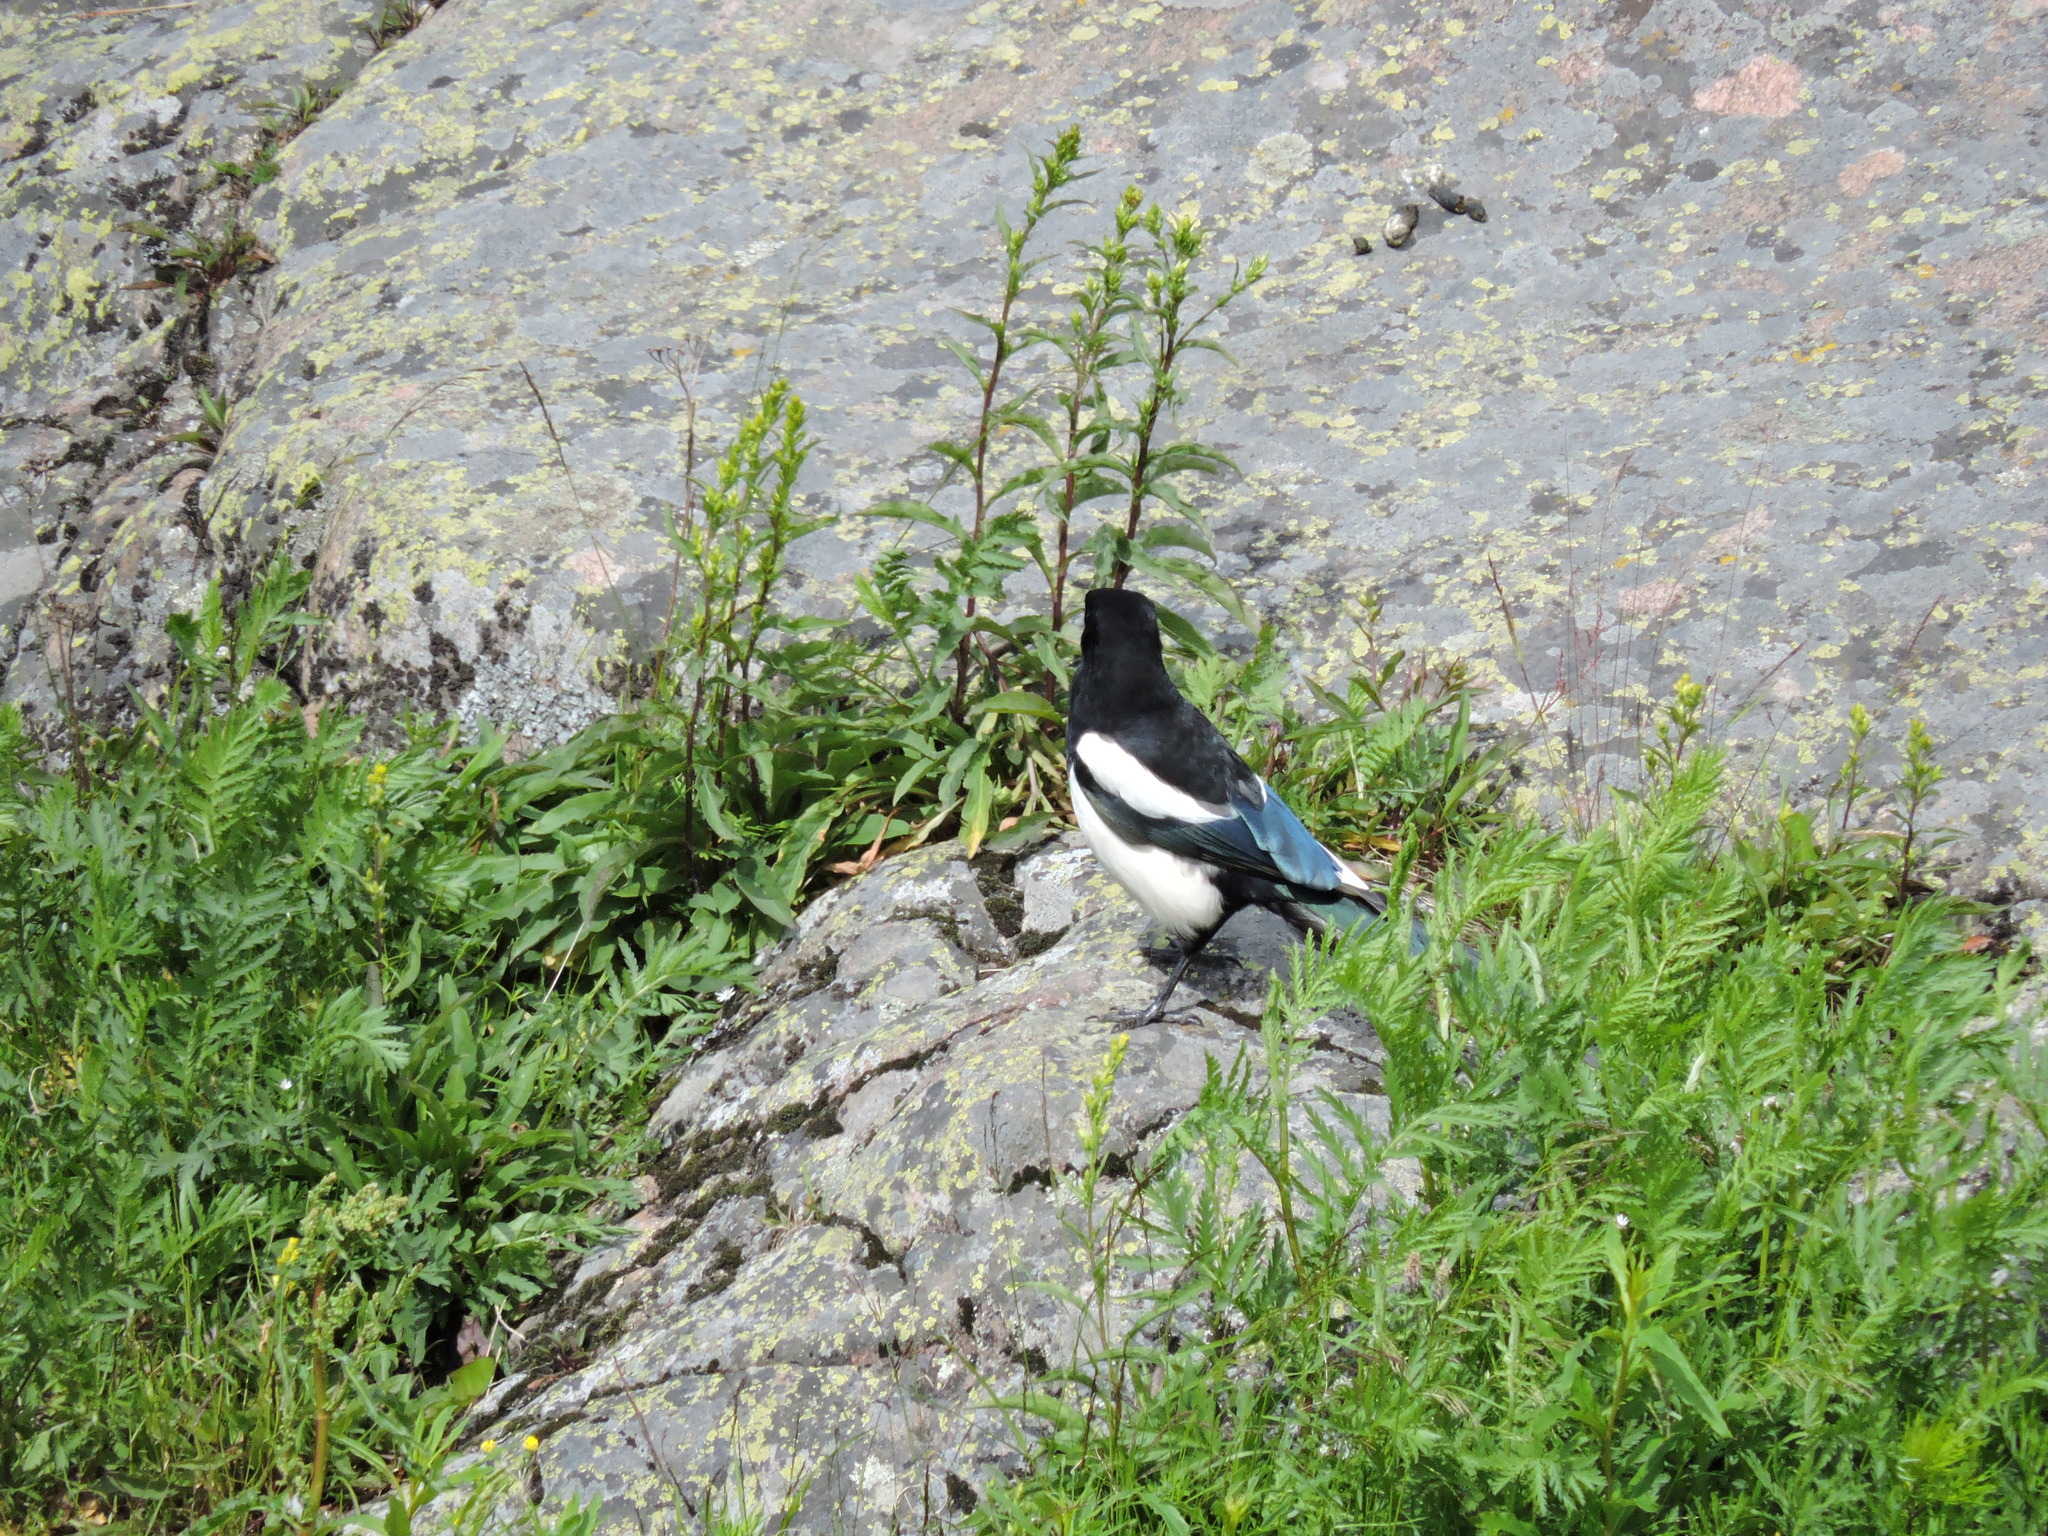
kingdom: Animalia
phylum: Chordata
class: Aves
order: Passeriformes
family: Corvidae
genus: Pica
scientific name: Pica pica
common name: Eurasian magpie
